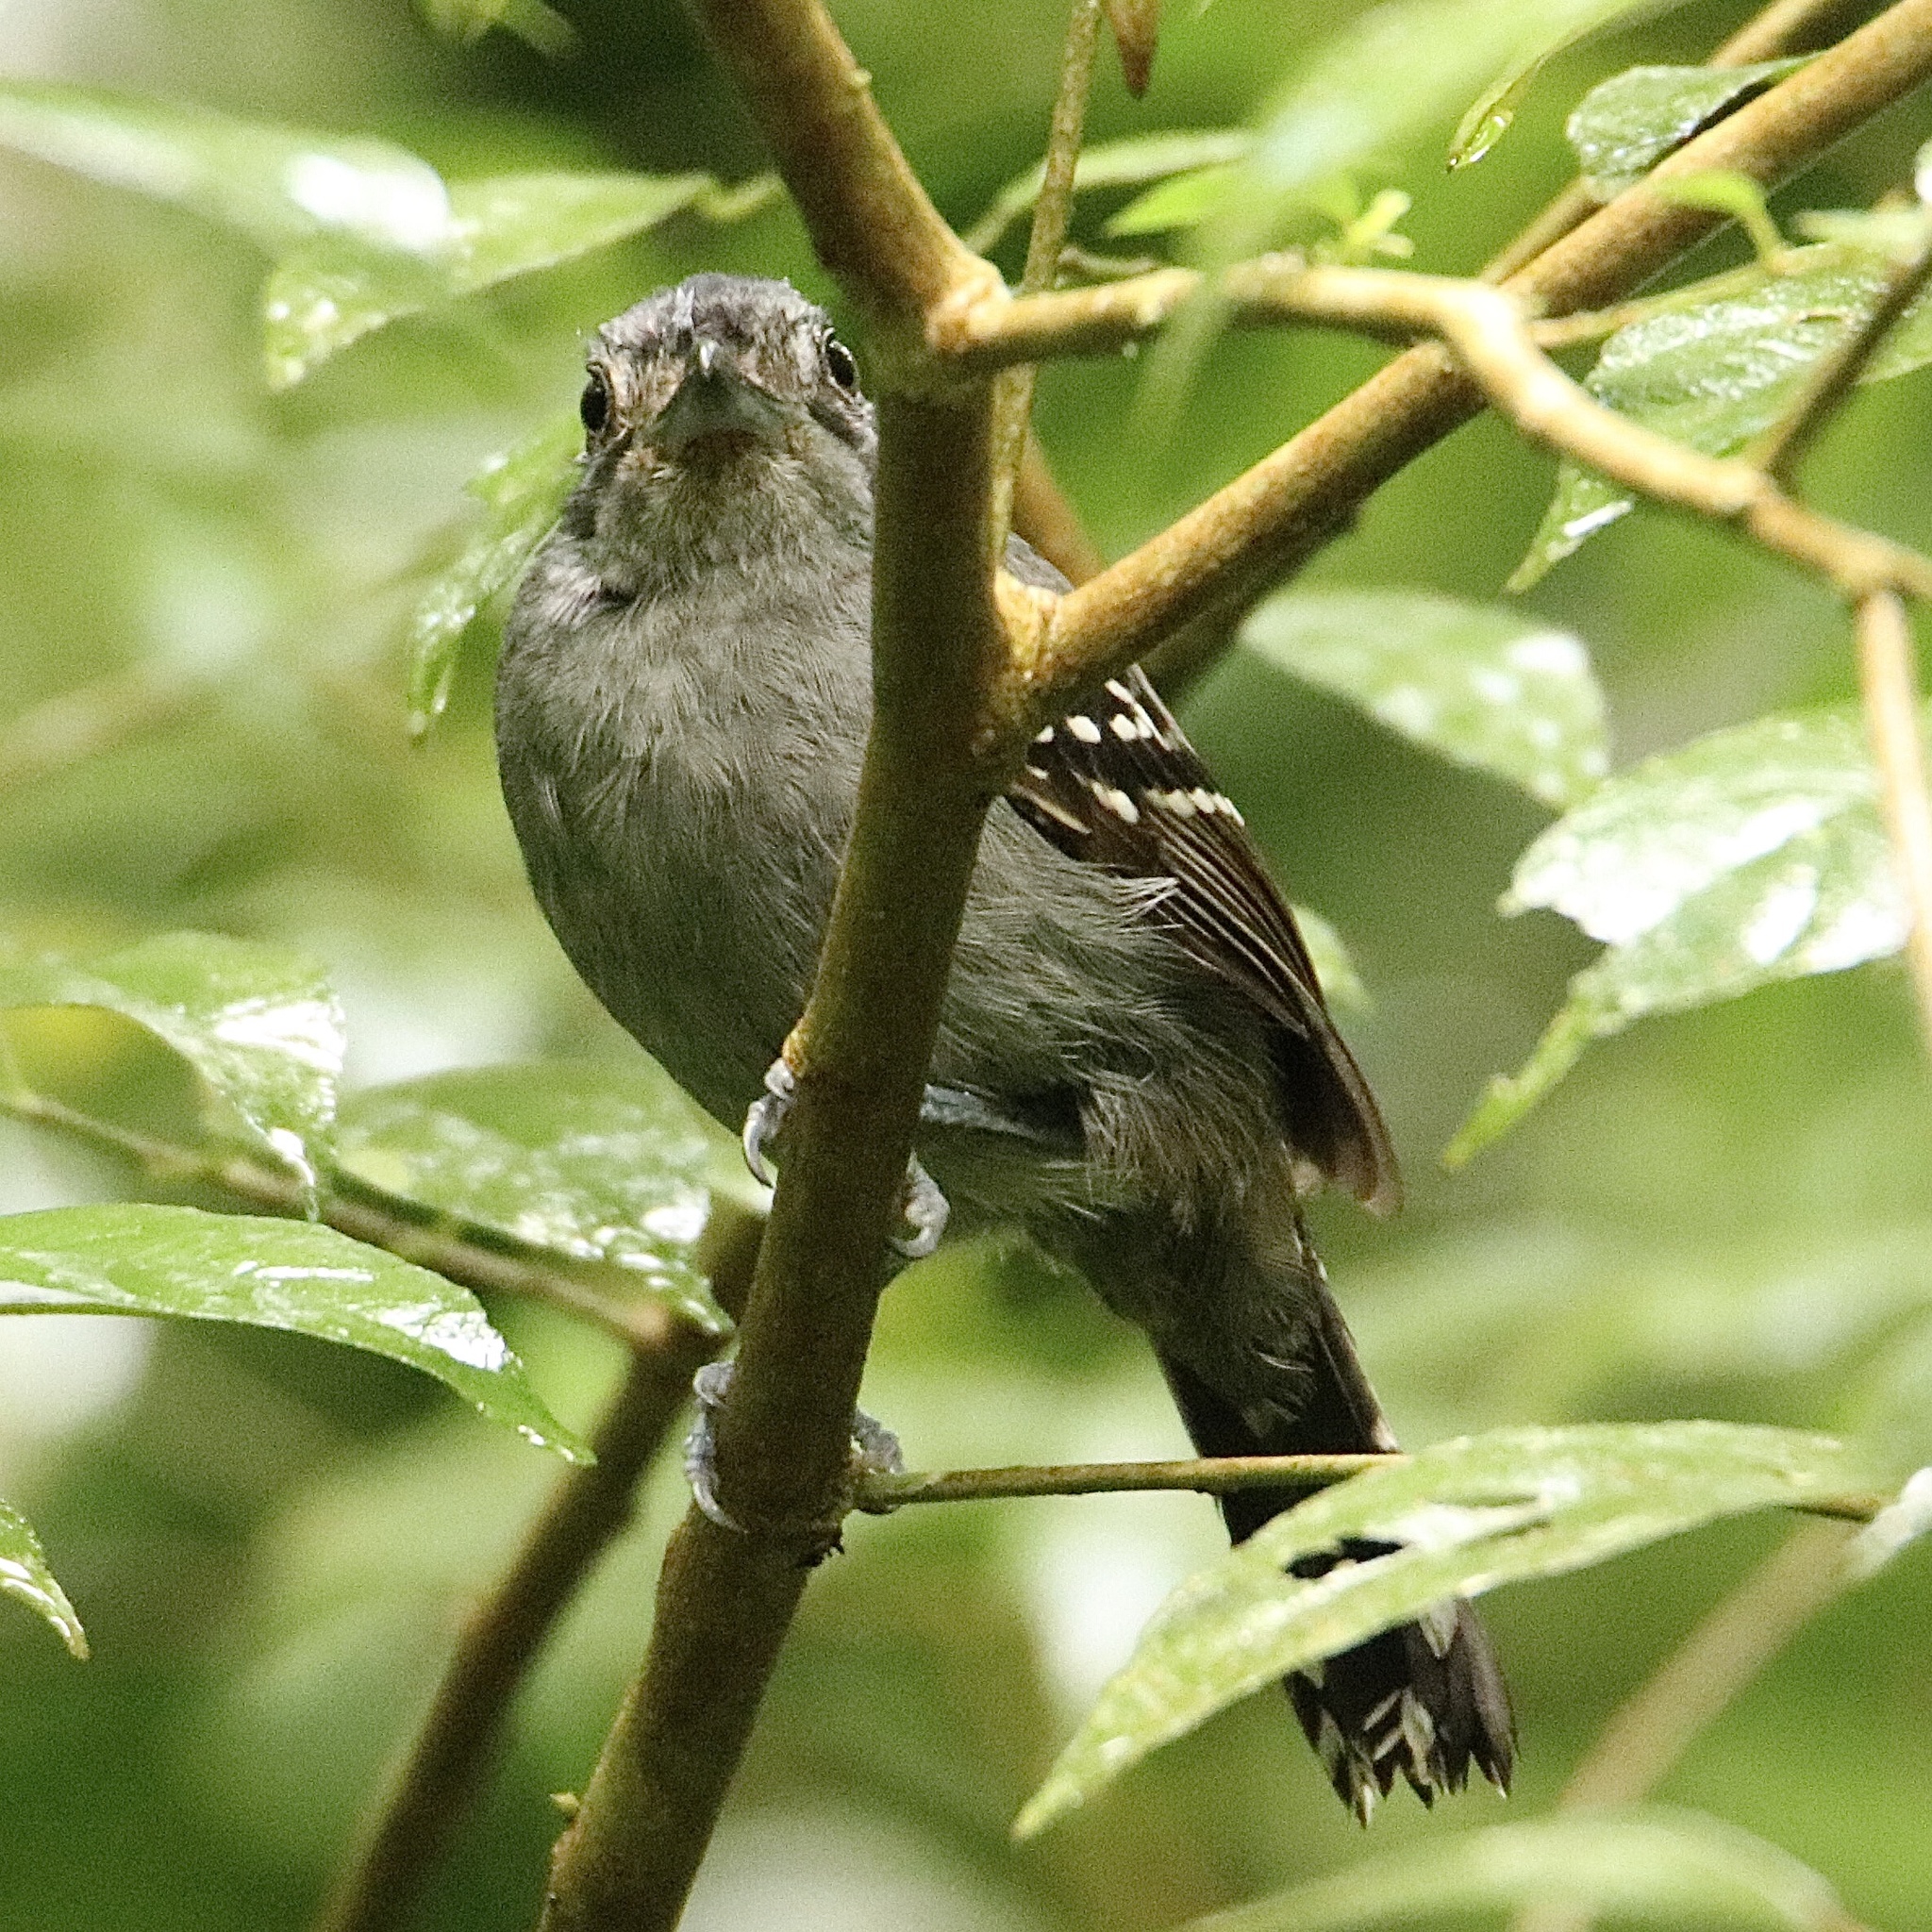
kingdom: Animalia
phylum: Chordata
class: Aves
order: Passeriformes
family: Thamnophilidae
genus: Thamnophilus
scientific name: Thamnophilus atrinucha
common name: Black-crowned antshrike
